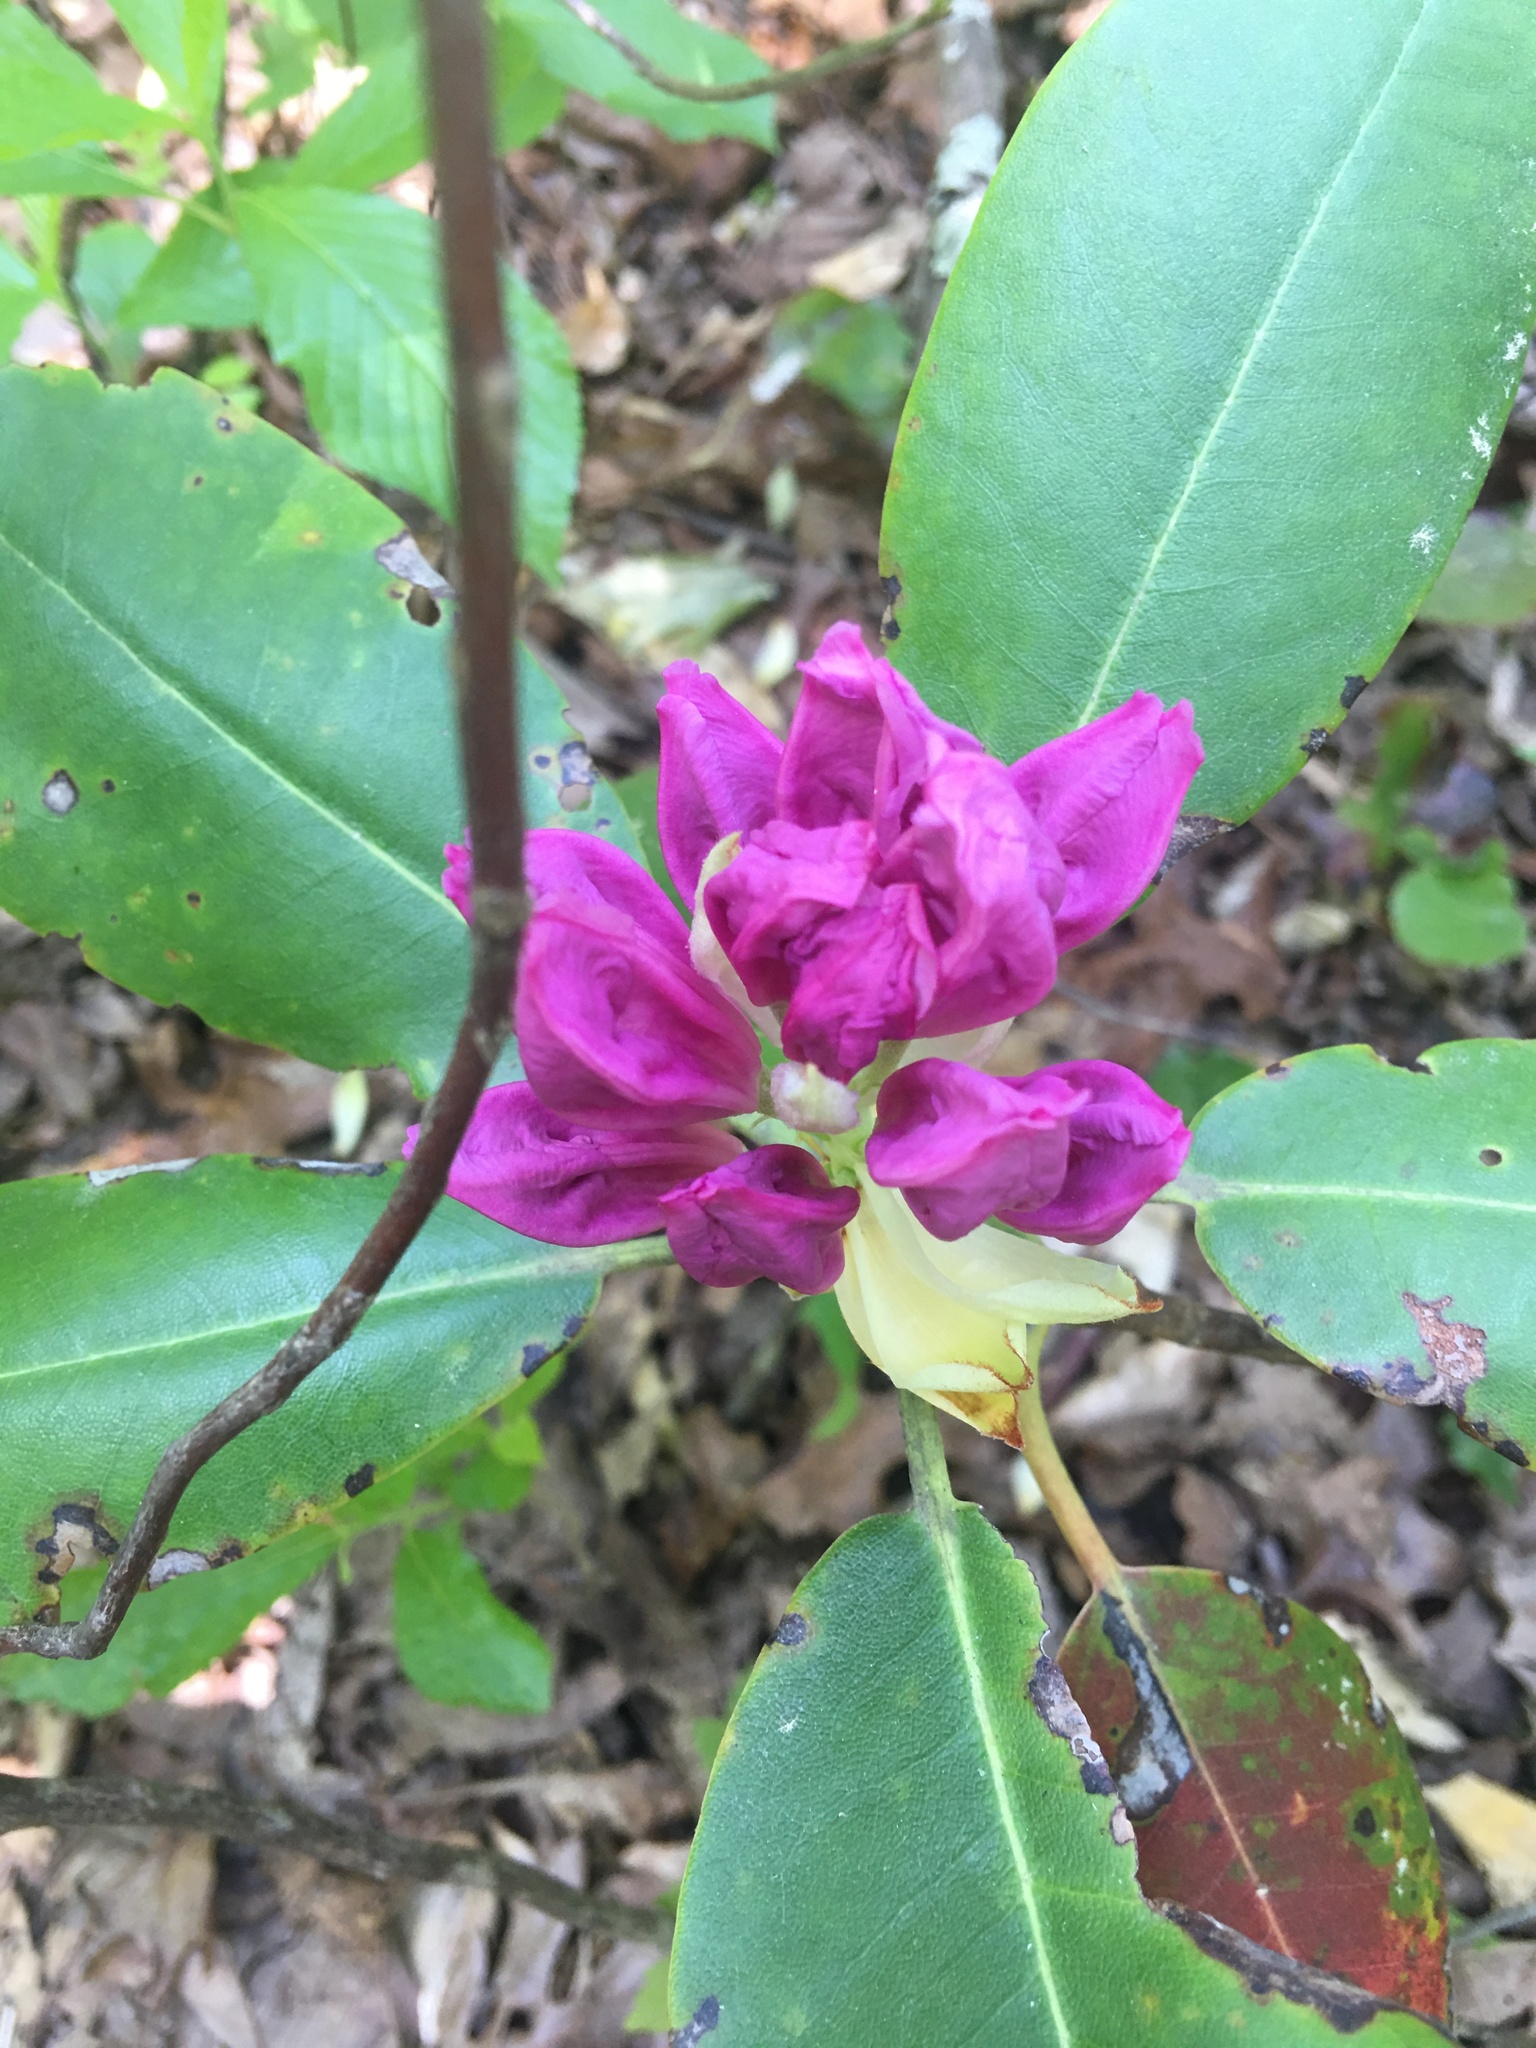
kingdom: Plantae
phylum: Tracheophyta
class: Magnoliopsida
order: Ericales
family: Ericaceae
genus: Rhododendron
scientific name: Rhododendron catawbiense
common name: Catawba rhododendron
